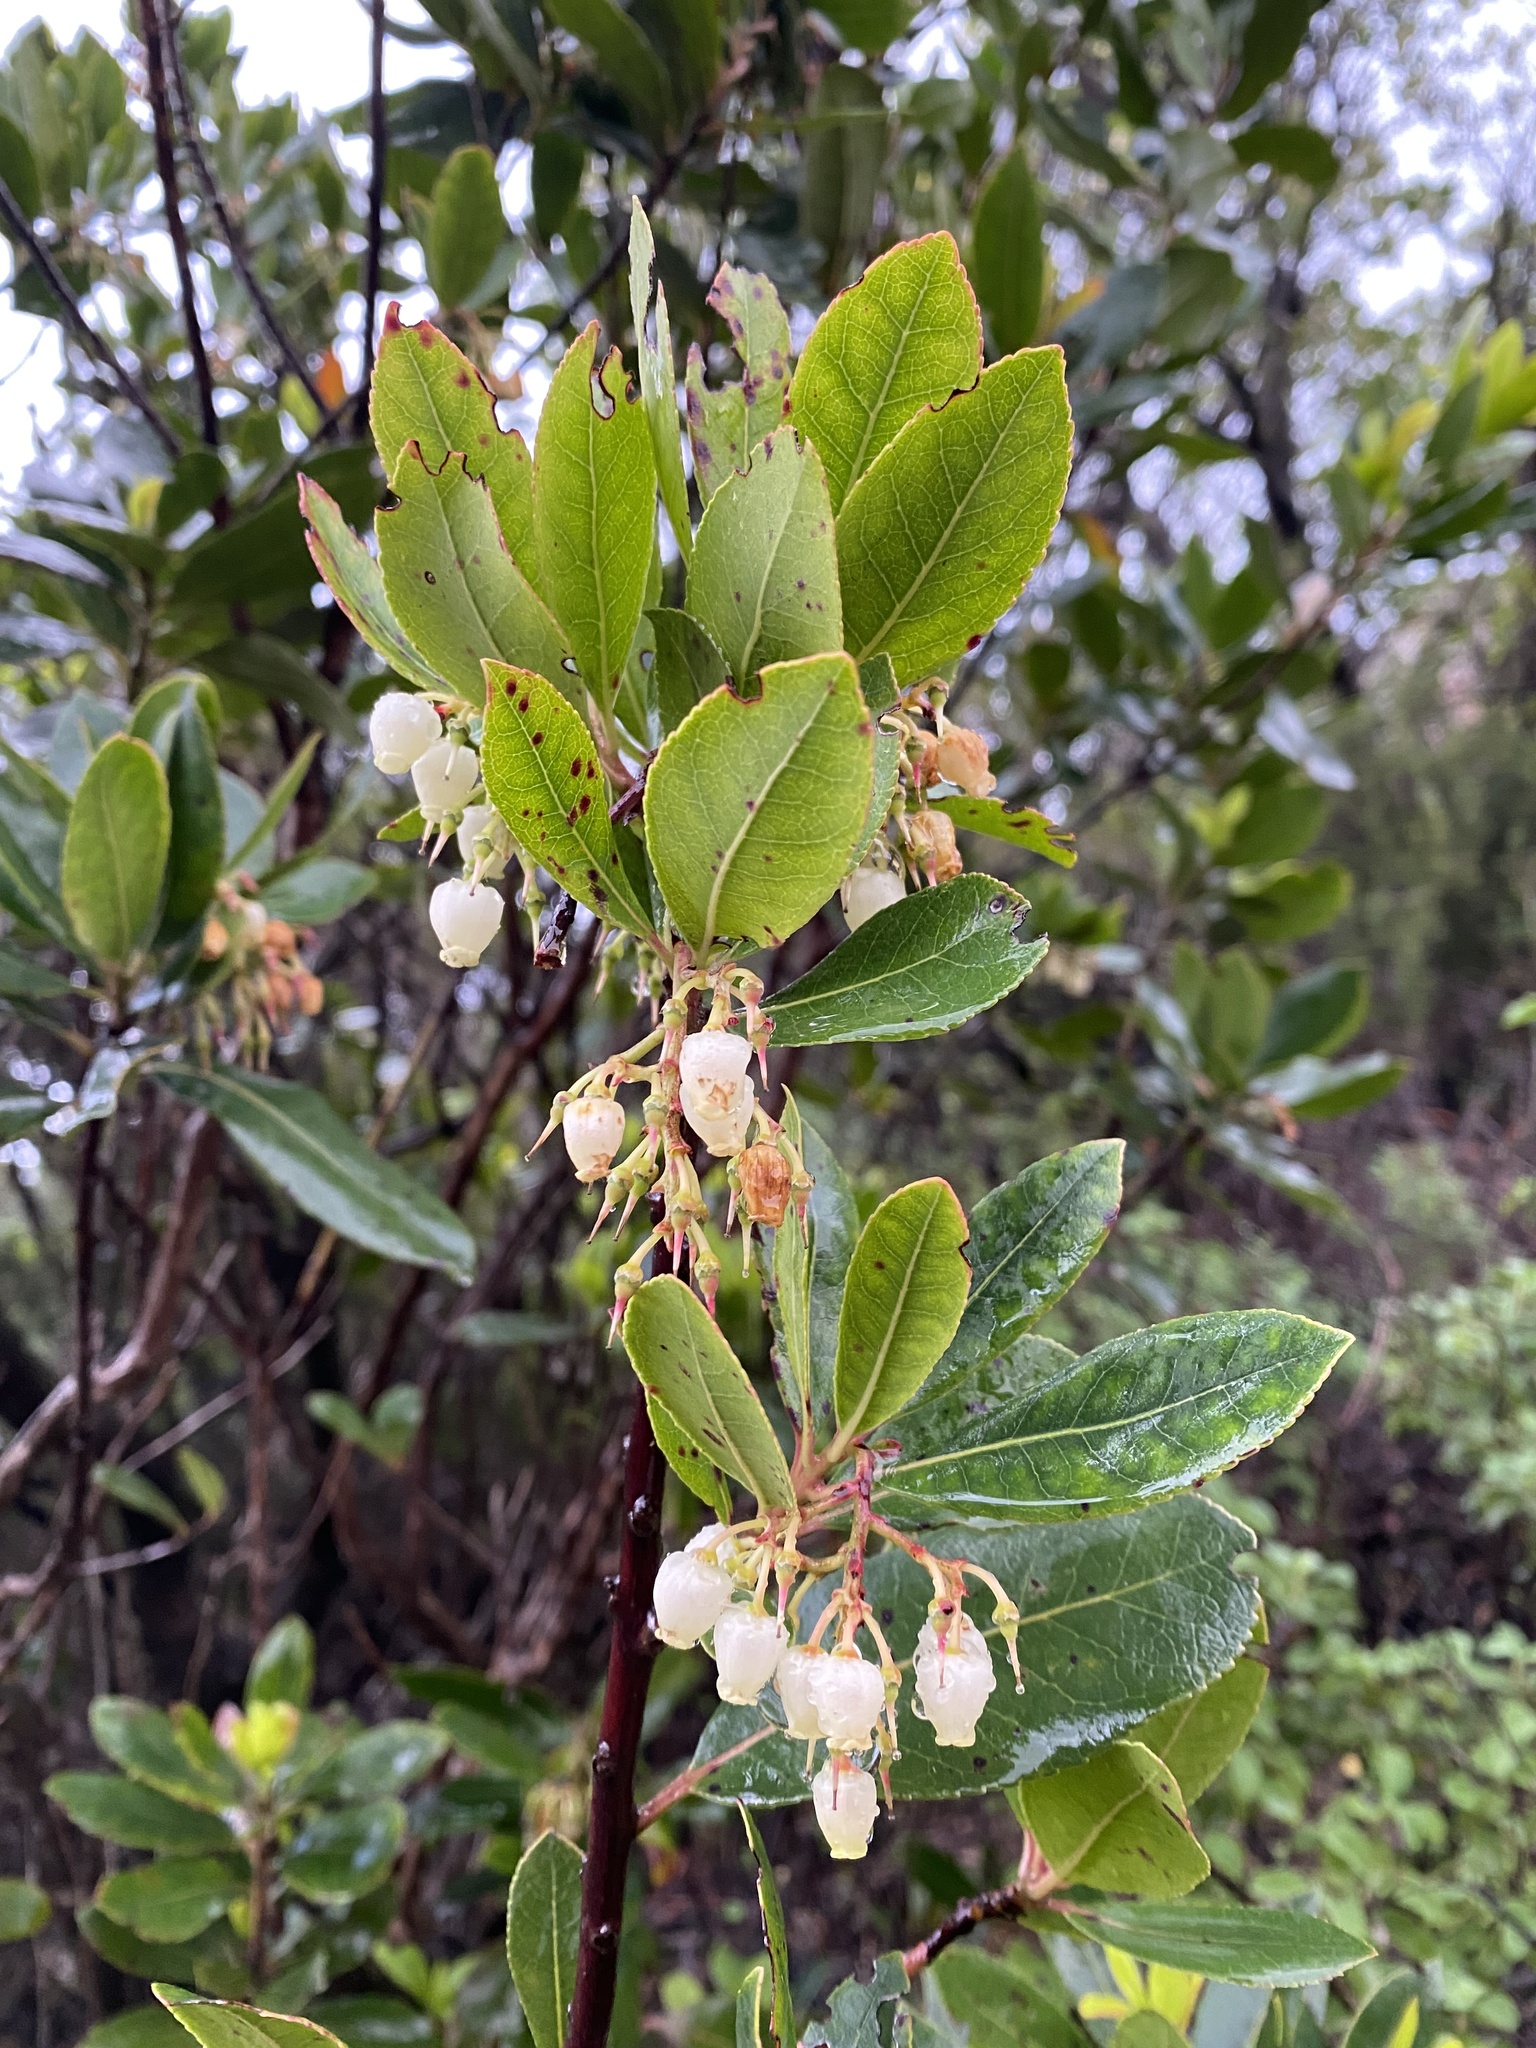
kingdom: Plantae
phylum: Tracheophyta
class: Magnoliopsida
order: Ericales
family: Ericaceae
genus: Arbutus
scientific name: Arbutus unedo
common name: Strawberry-tree
